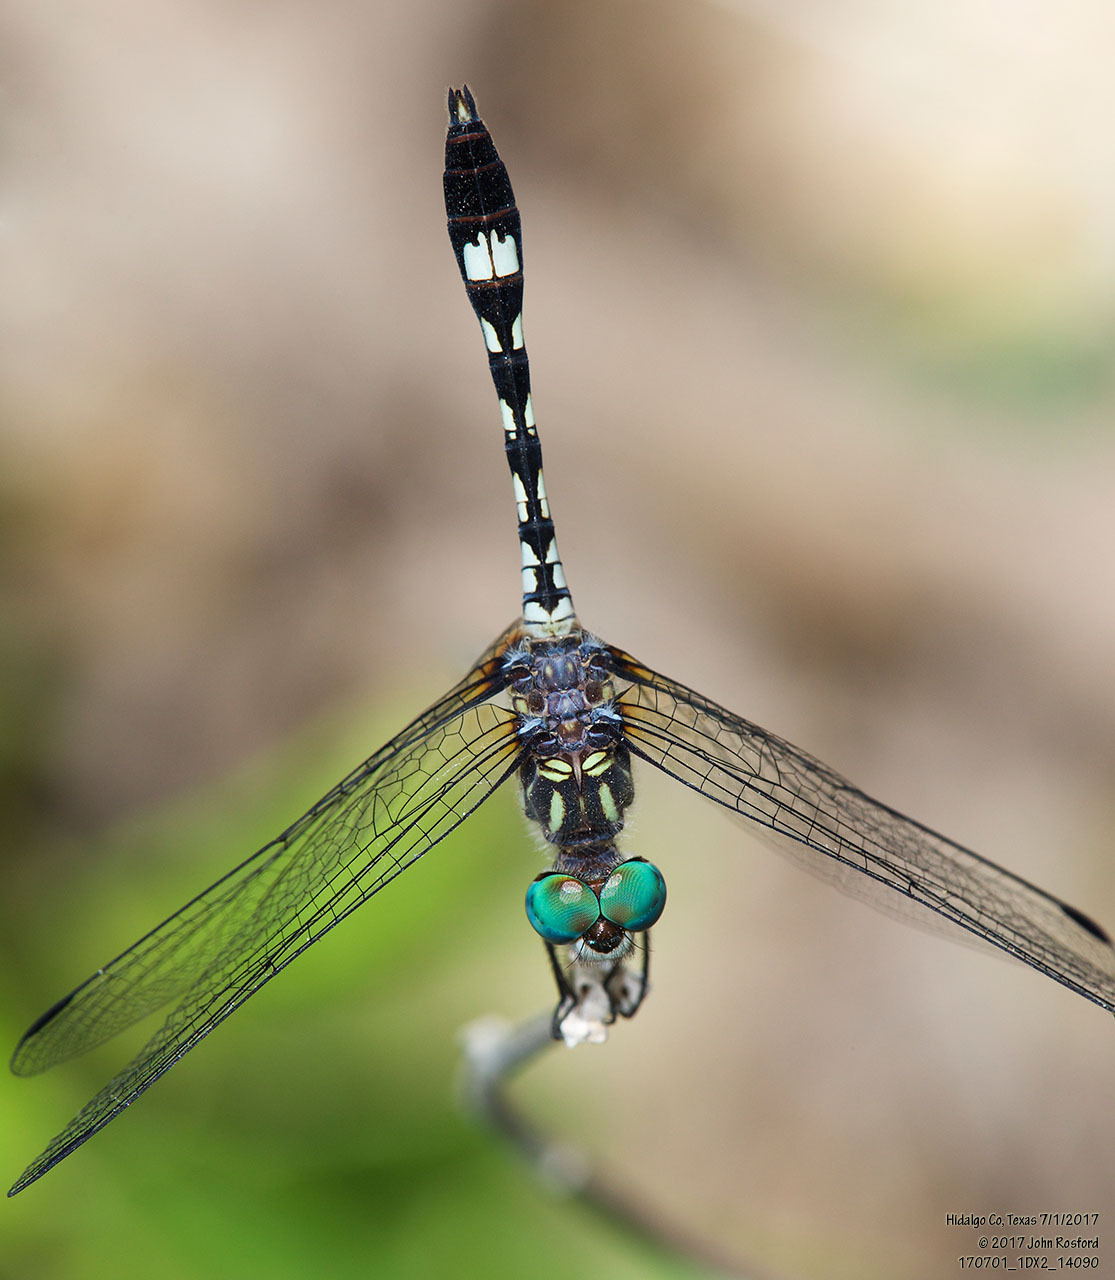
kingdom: Animalia
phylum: Arthropoda
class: Insecta
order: Odonata
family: Libellulidae
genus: Micrathyria
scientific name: Micrathyria hagenii
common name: Thornbush dasher
